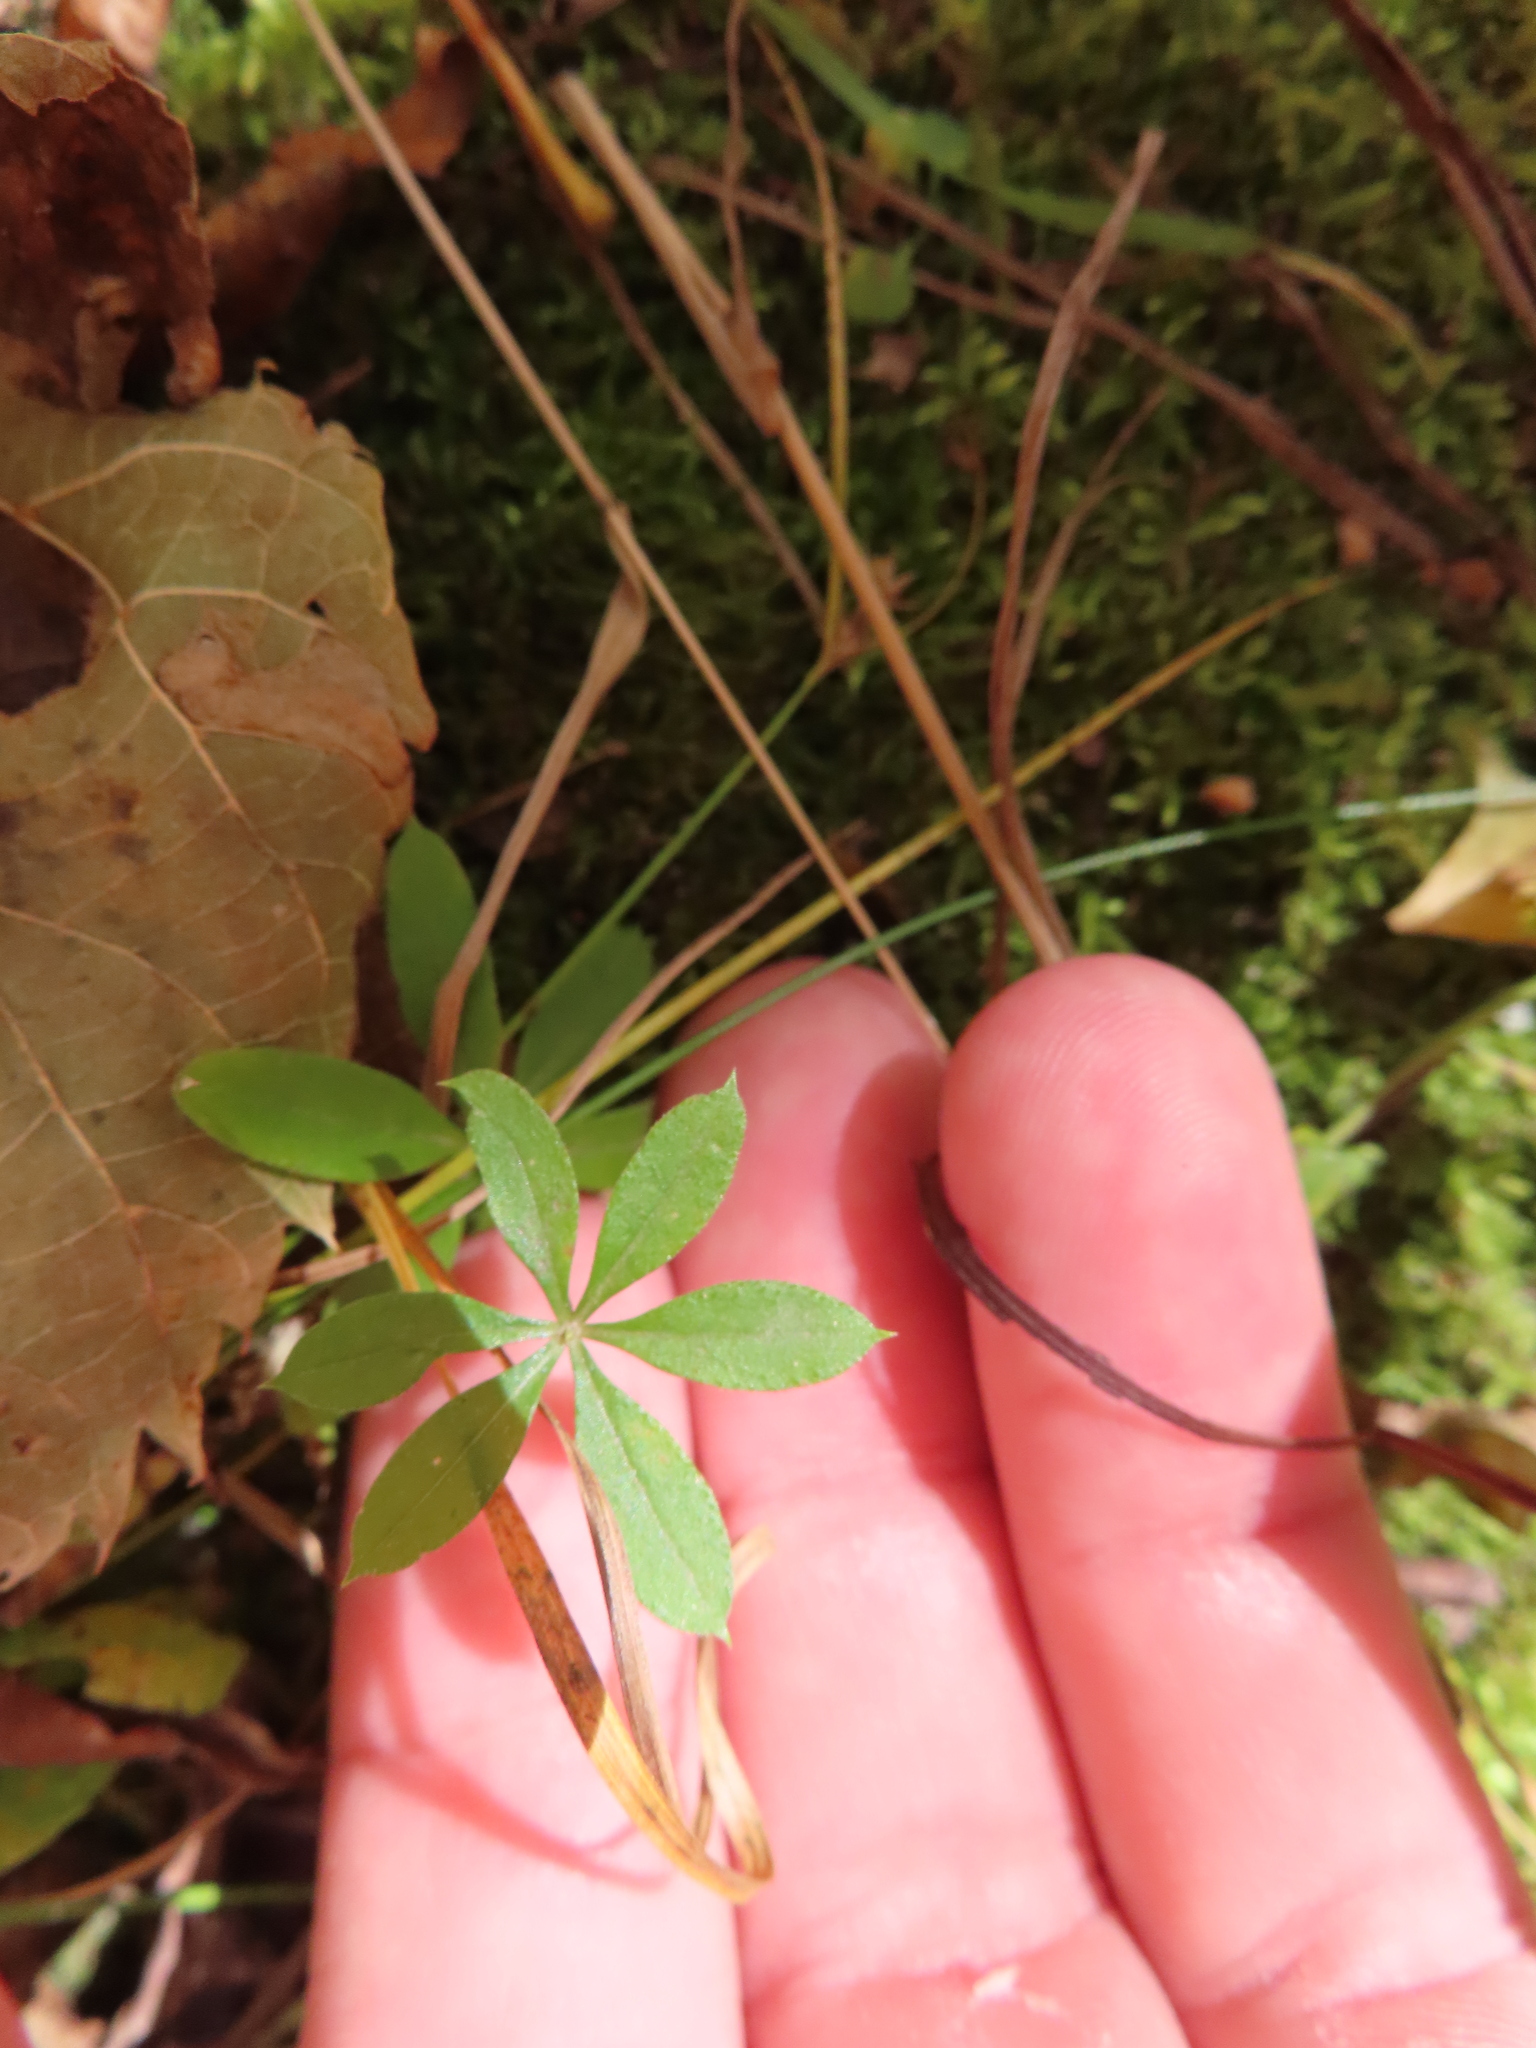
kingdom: Plantae
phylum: Tracheophyta
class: Magnoliopsida
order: Gentianales
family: Rubiaceae
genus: Galium
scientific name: Galium triflorum
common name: Fragrant bedstraw
